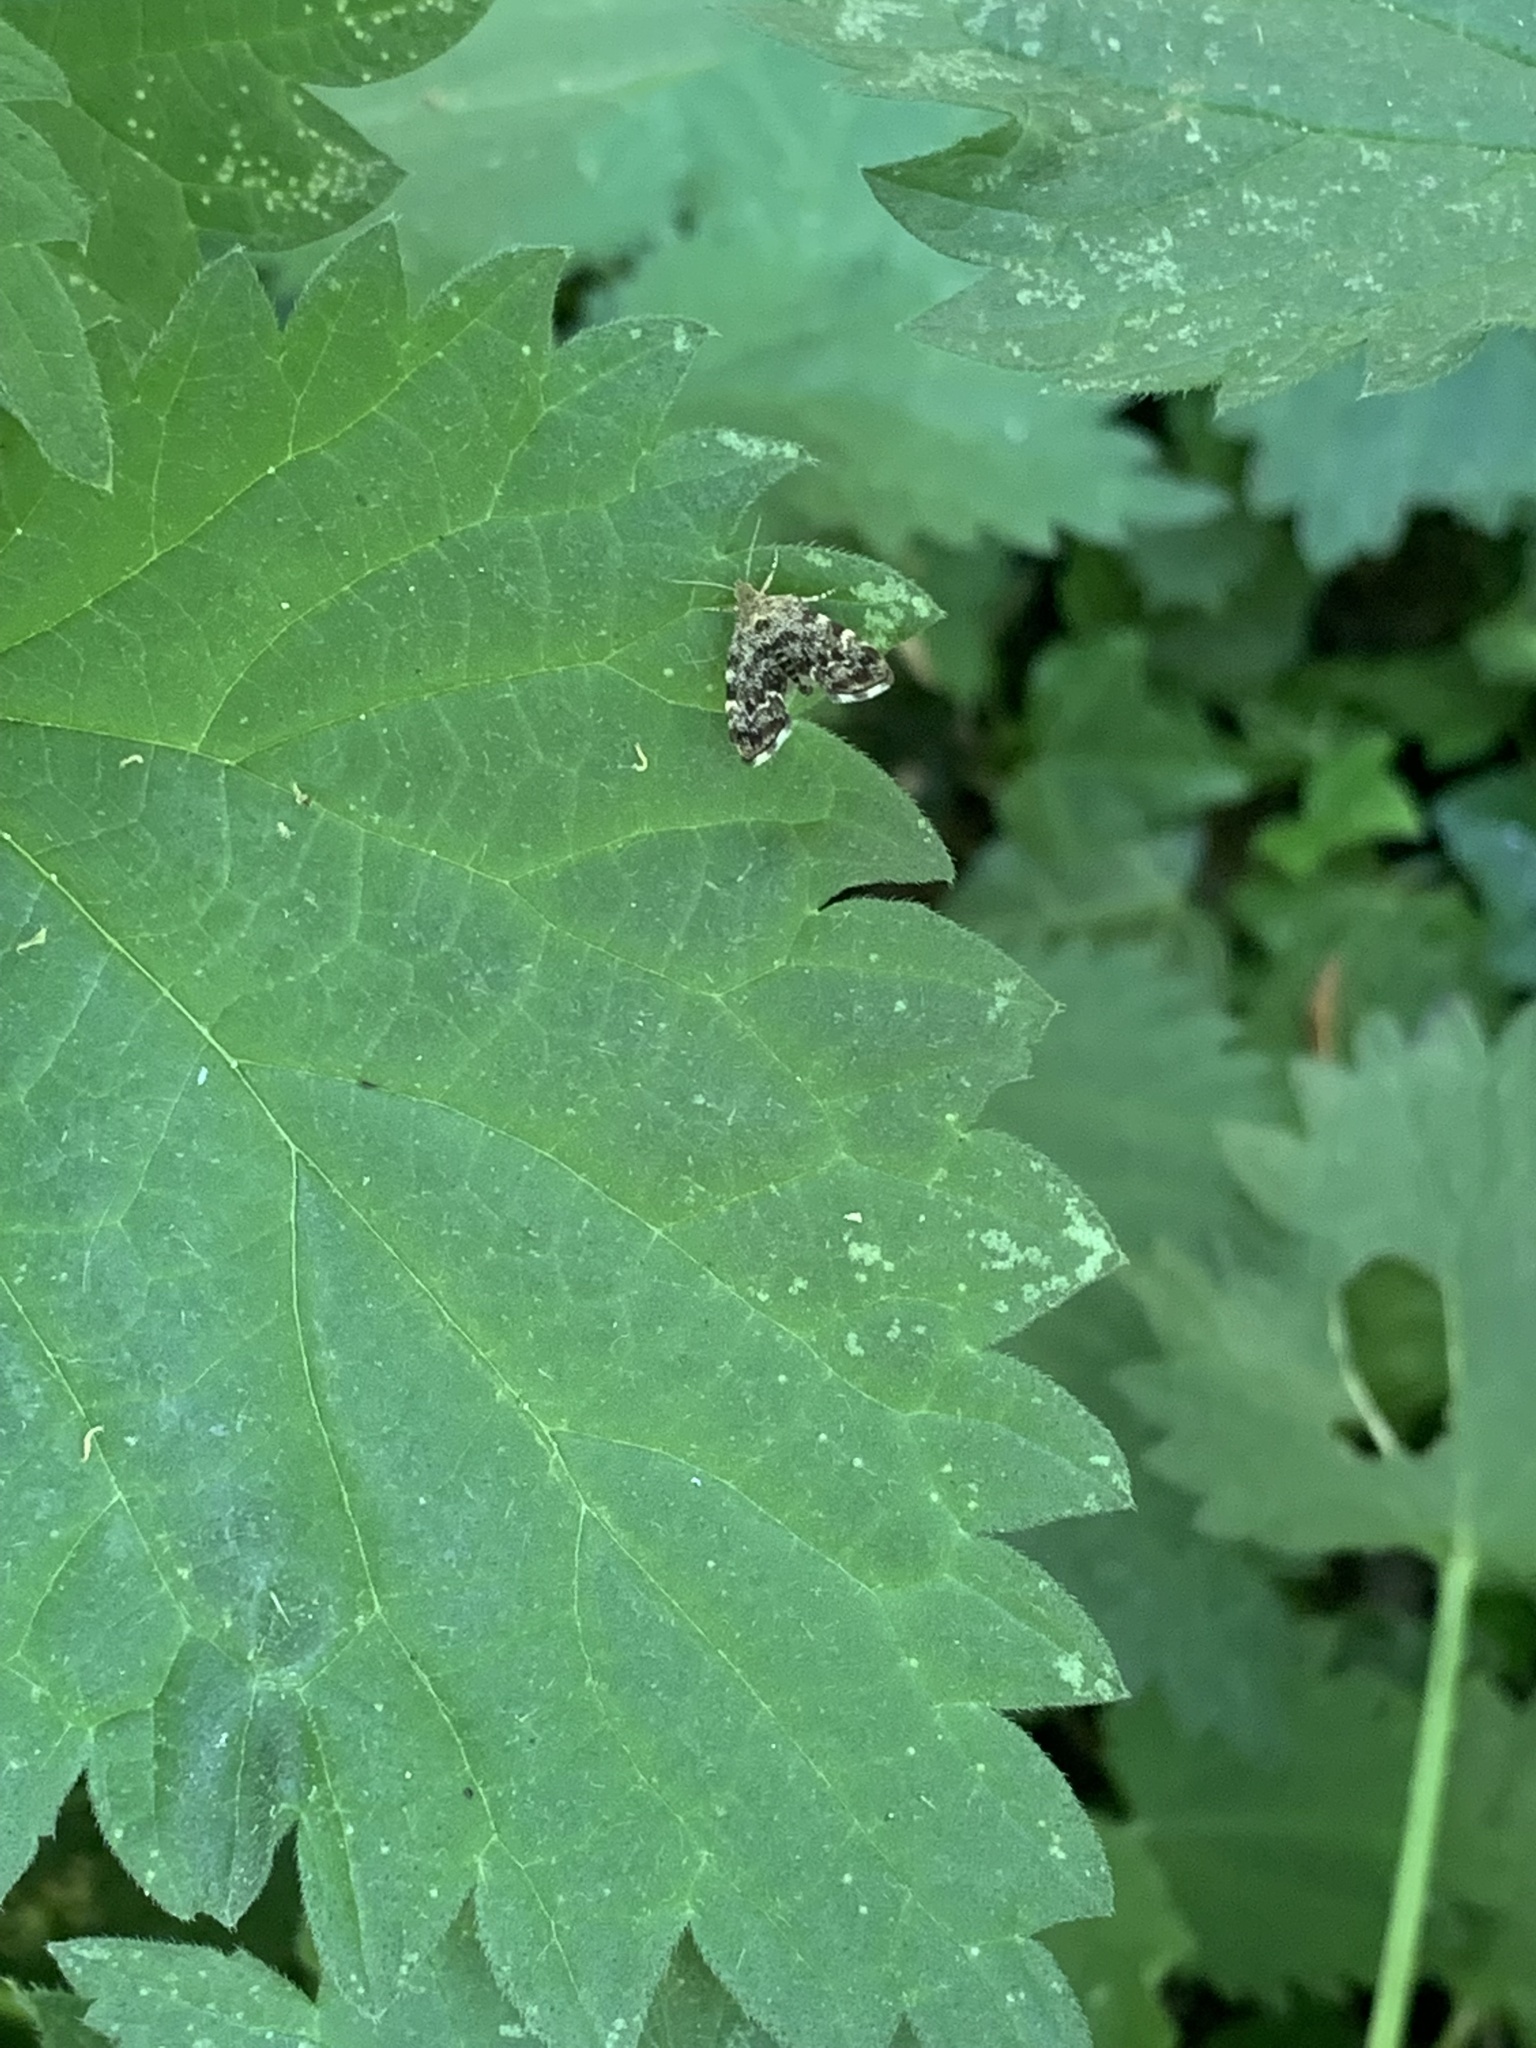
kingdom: Animalia
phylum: Arthropoda
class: Insecta
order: Lepidoptera
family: Choreutidae
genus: Anthophila
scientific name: Anthophila fabriciana
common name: Nettle-tap
